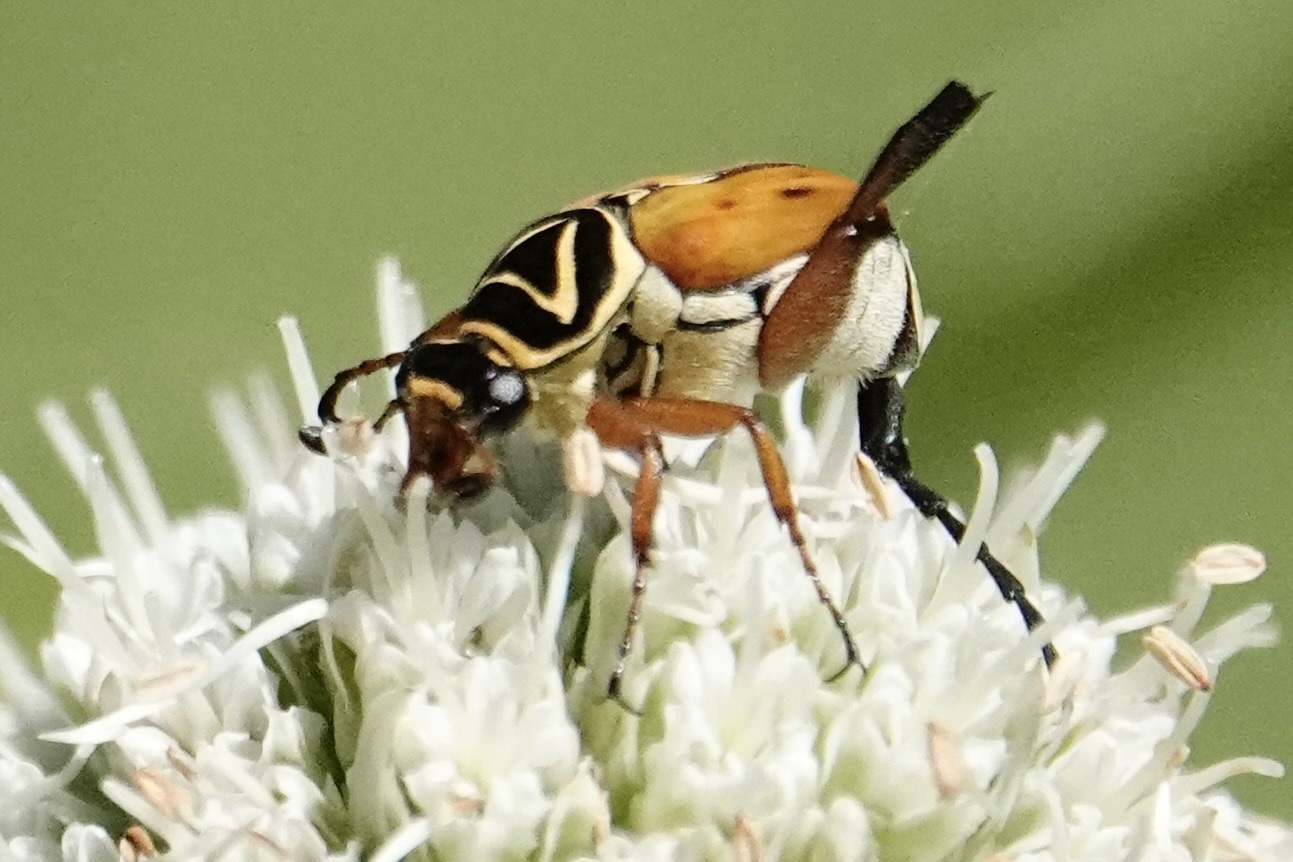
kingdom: Animalia
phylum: Arthropoda
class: Insecta
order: Coleoptera
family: Scarabaeidae
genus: Trigonopeltastes
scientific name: Trigonopeltastes delta
